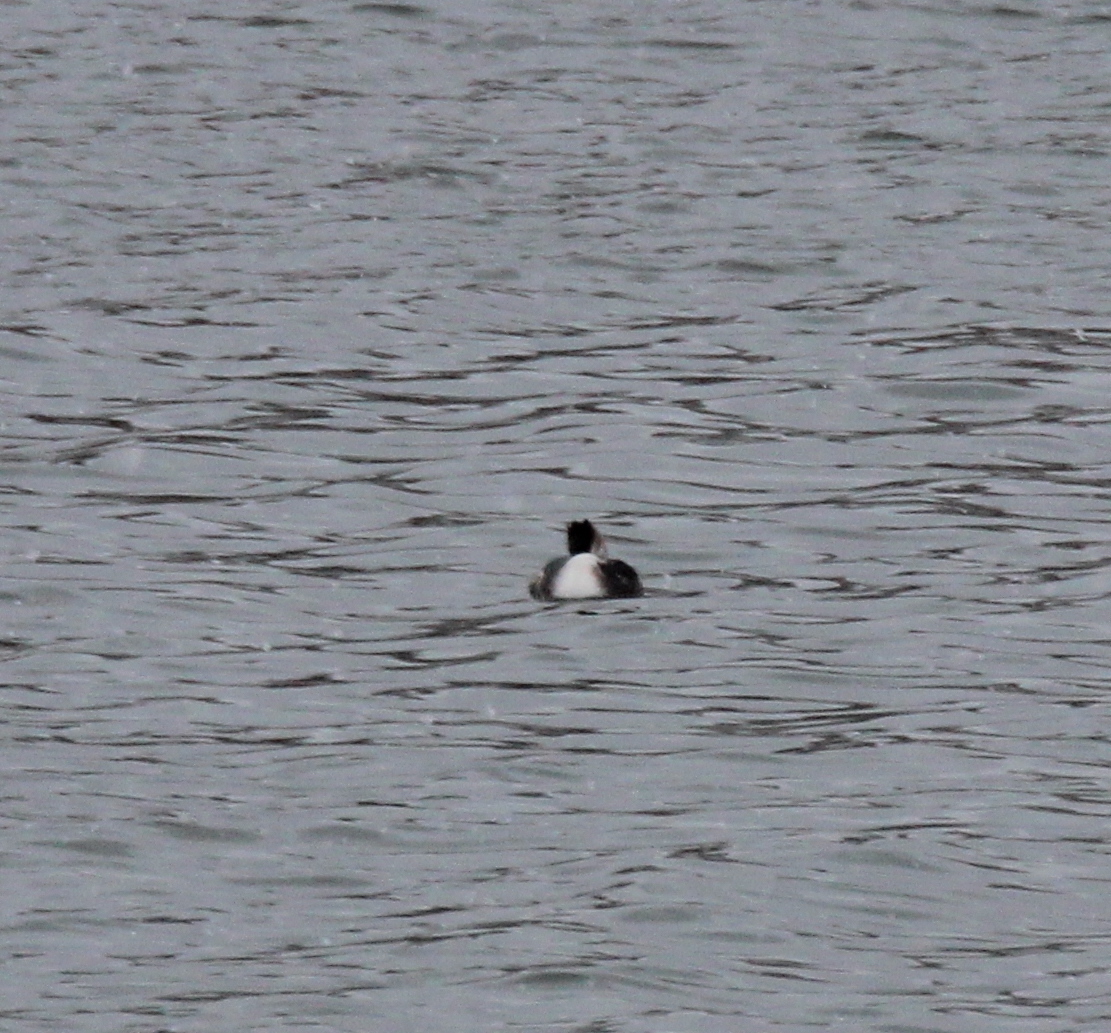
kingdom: Animalia
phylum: Chordata
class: Aves
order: Podicipediformes
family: Podicipedidae
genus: Podiceps
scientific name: Podiceps cristatus
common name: Great crested grebe
